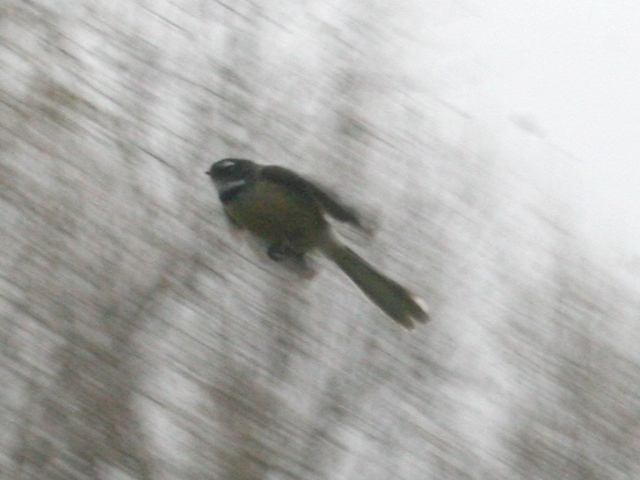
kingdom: Animalia
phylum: Chordata
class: Aves
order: Passeriformes
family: Rhipiduridae
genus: Rhipidura
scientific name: Rhipidura fuliginosa
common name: New zealand fantail
